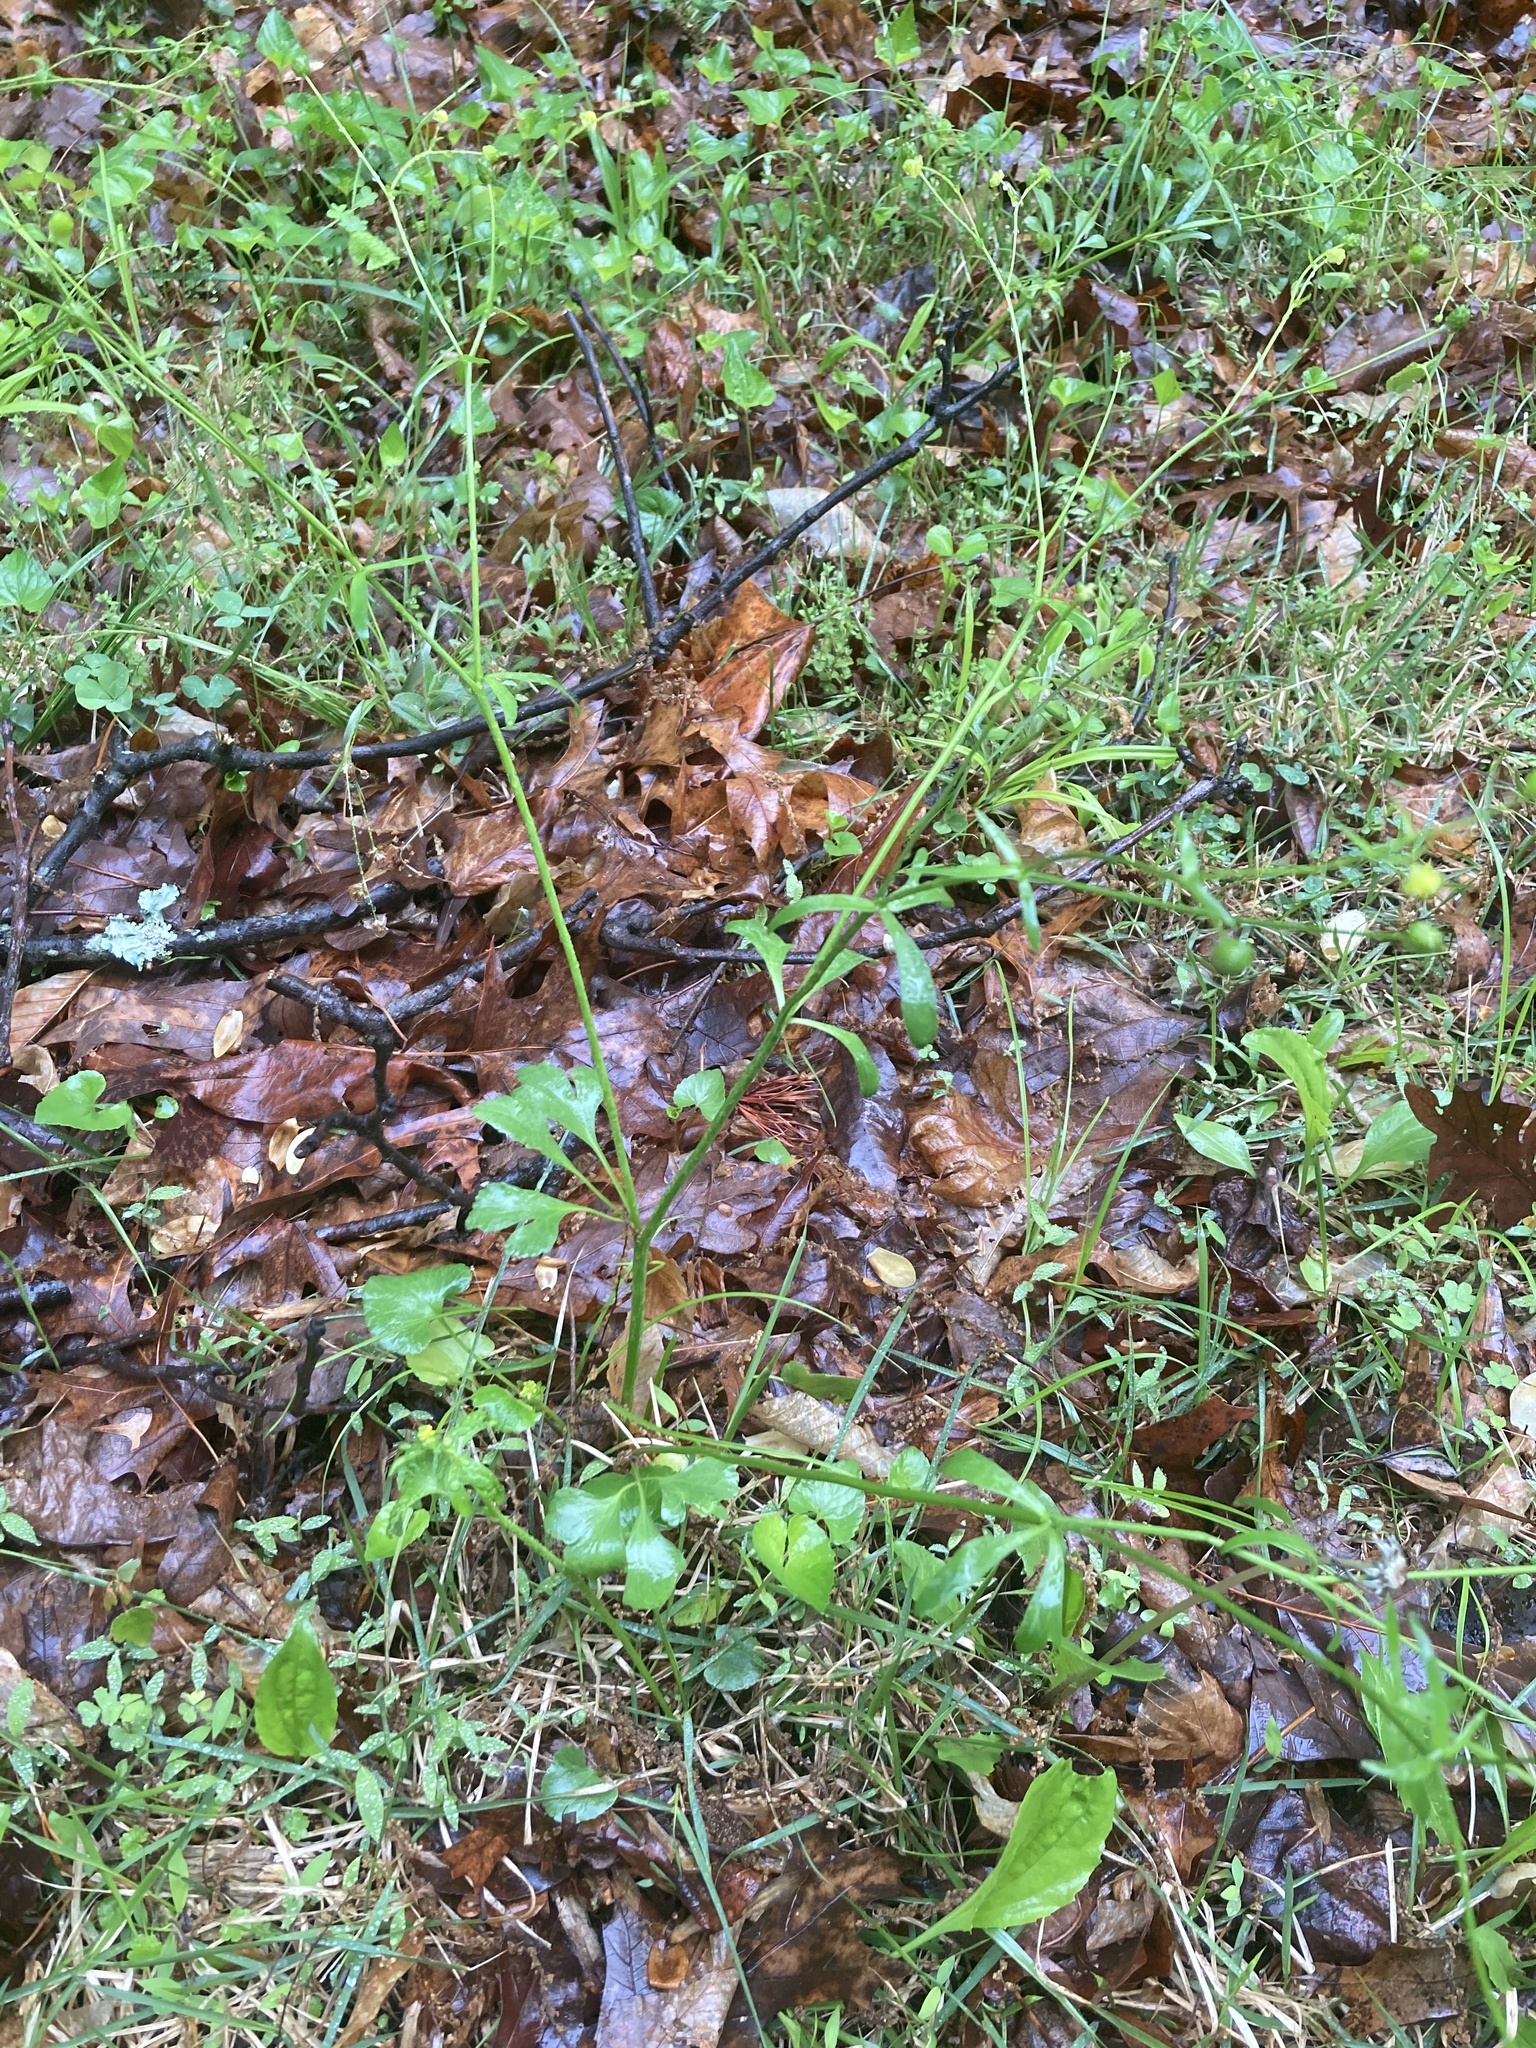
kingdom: Plantae
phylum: Tracheophyta
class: Magnoliopsida
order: Ranunculales
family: Ranunculaceae
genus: Ranunculus
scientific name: Ranunculus abortivus
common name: Early wood buttercup
